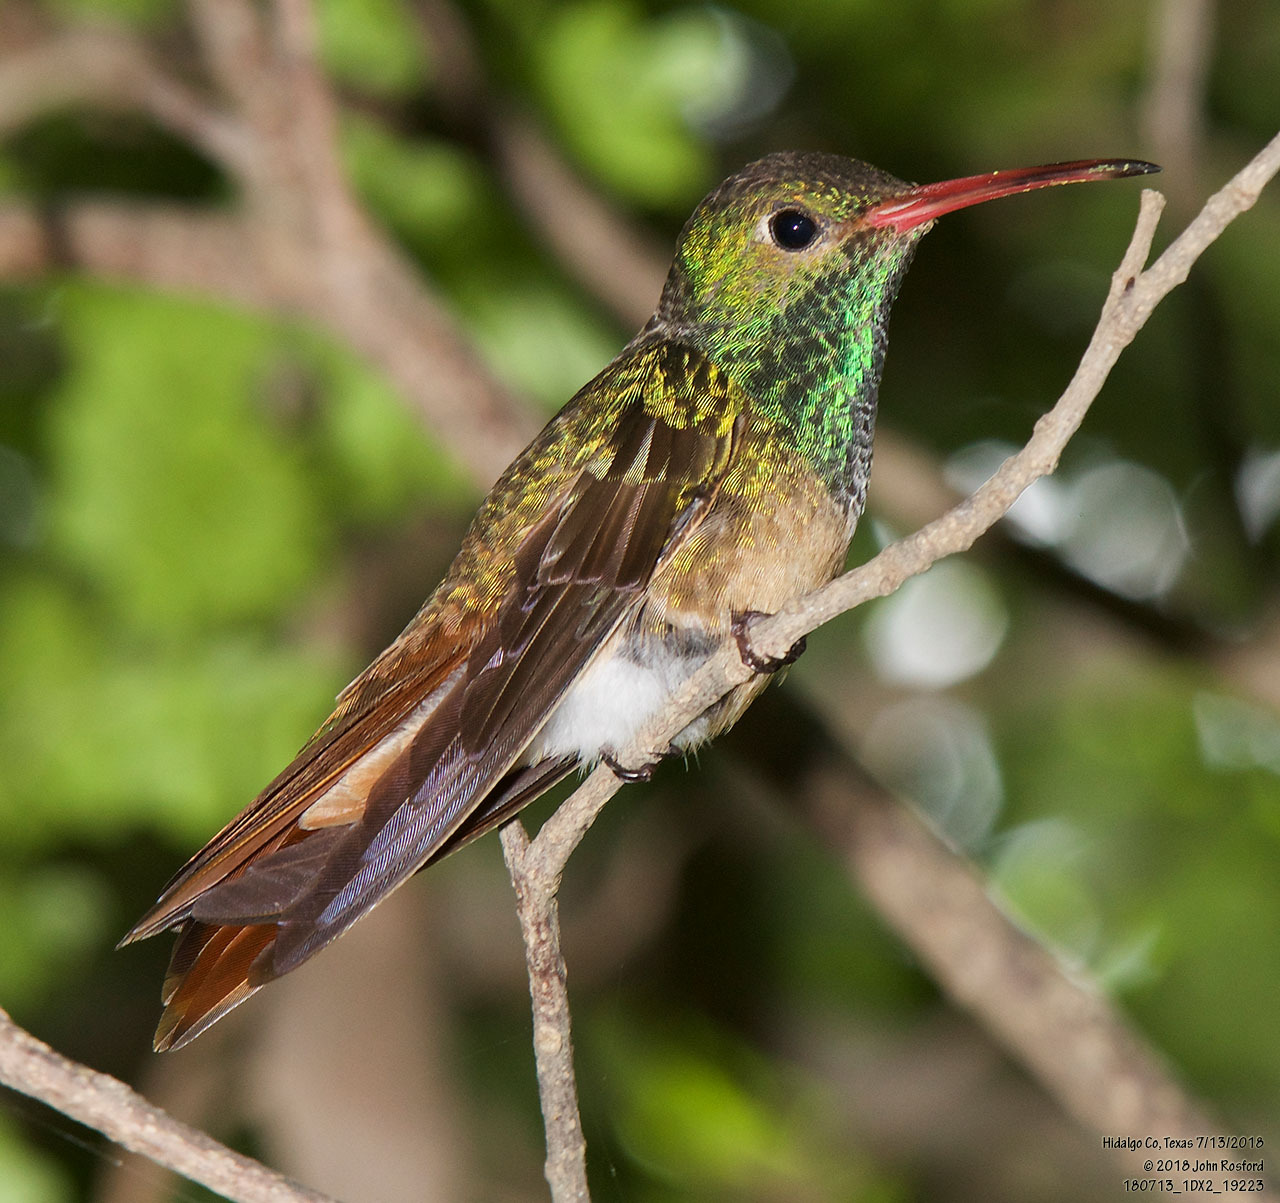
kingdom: Animalia
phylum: Chordata
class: Aves
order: Apodiformes
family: Trochilidae
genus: Amazilia
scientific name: Amazilia yucatanensis
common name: Buff-bellied hummingbird
